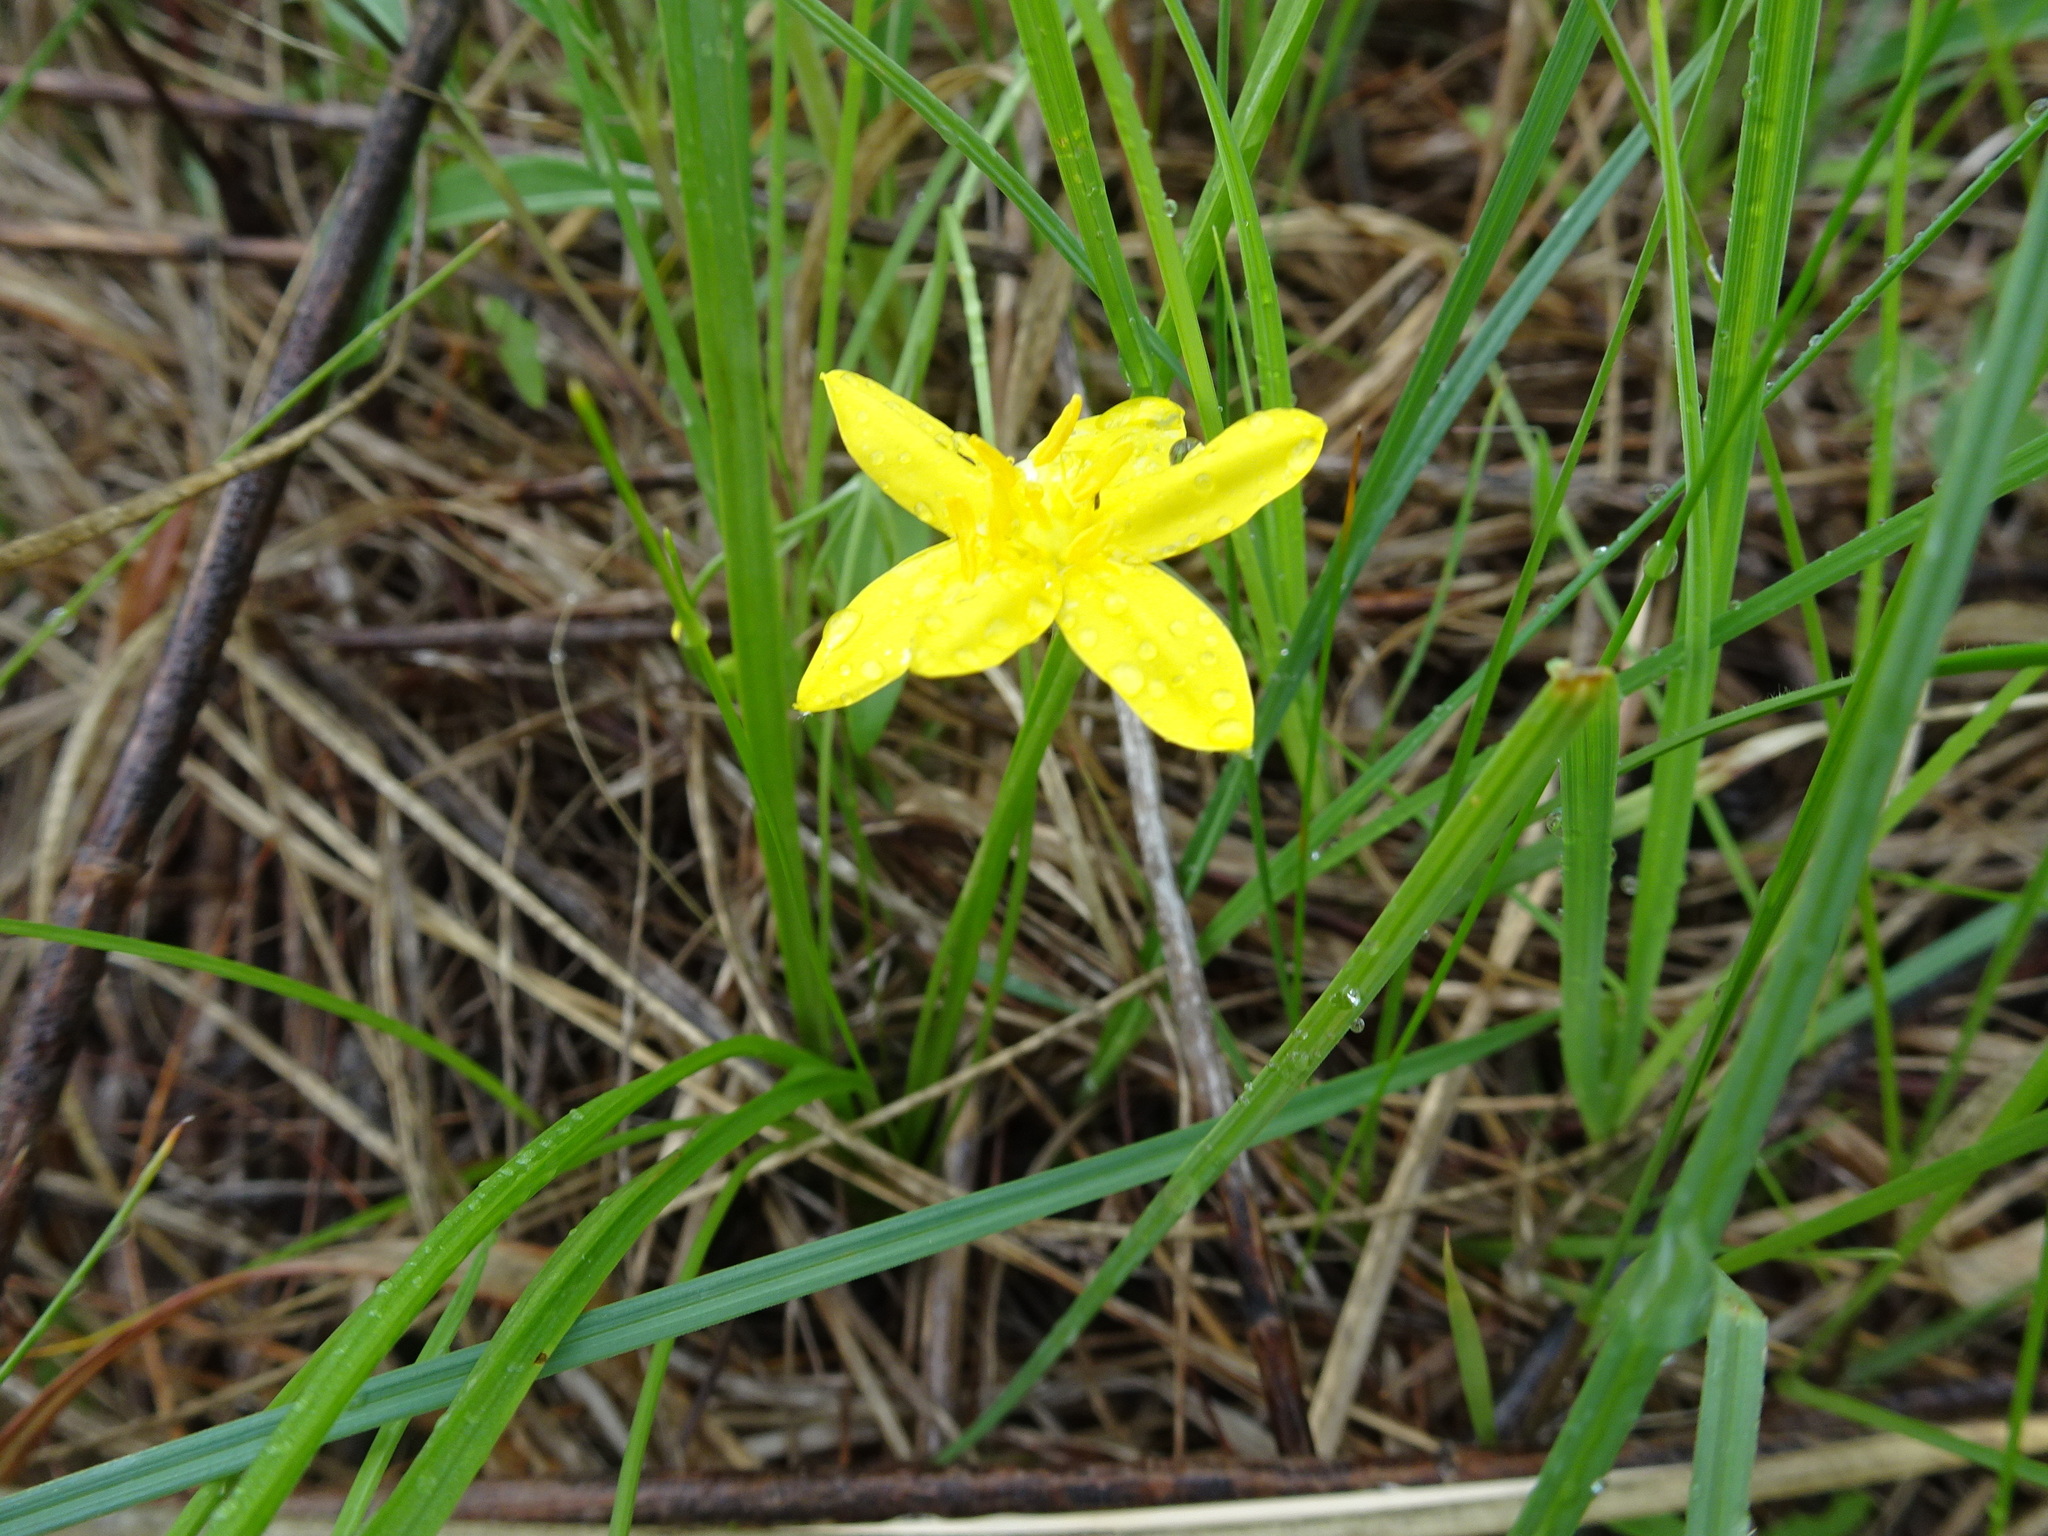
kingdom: Plantae
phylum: Tracheophyta
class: Liliopsida
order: Asparagales
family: Hypoxidaceae
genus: Hypoxis
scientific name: Hypoxis hirsuta
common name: Common goldstar
